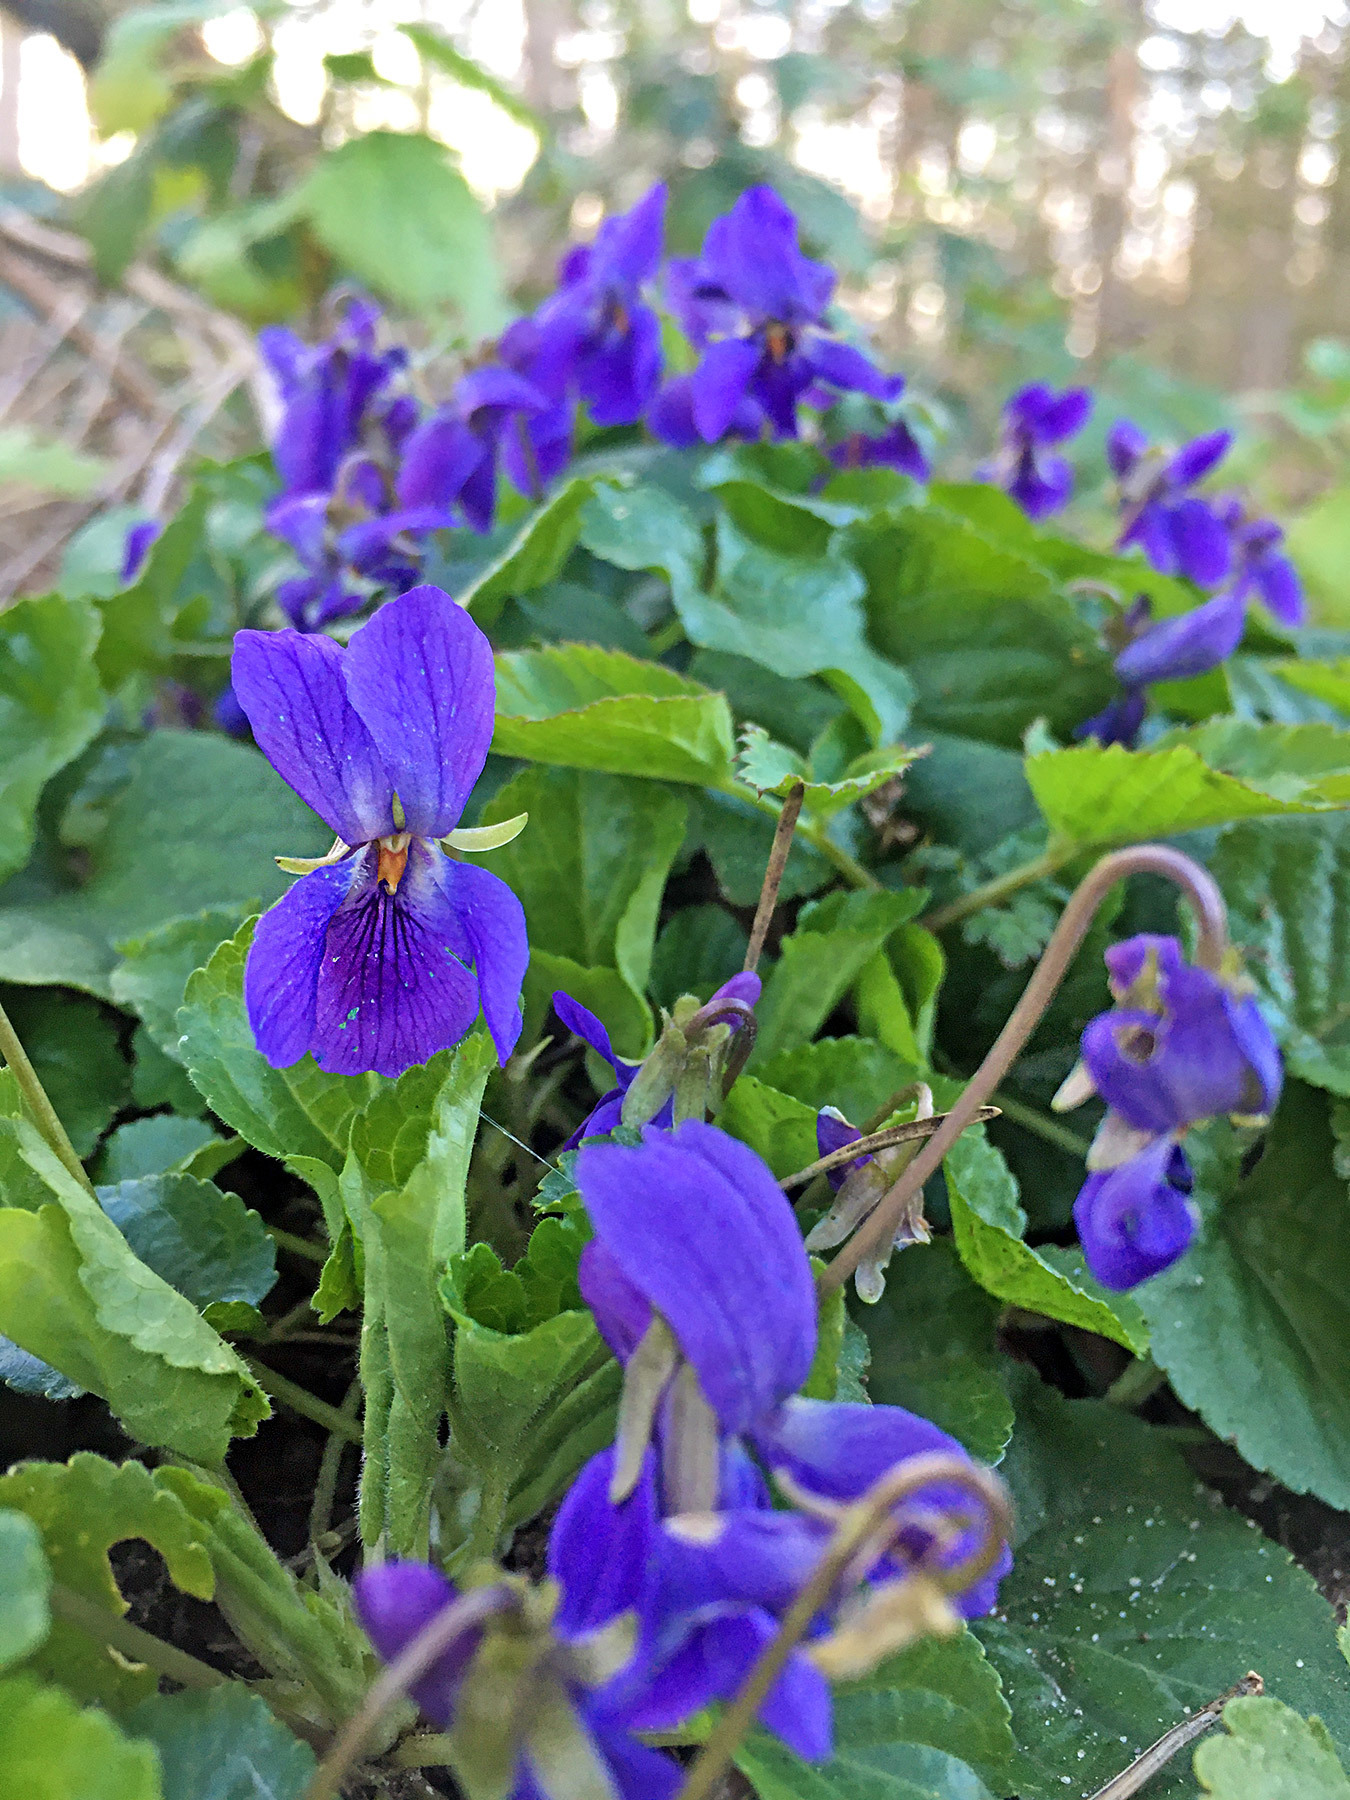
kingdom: Plantae
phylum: Tracheophyta
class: Magnoliopsida
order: Malpighiales
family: Violaceae
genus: Viola
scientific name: Viola odorata
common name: Sweet violet
